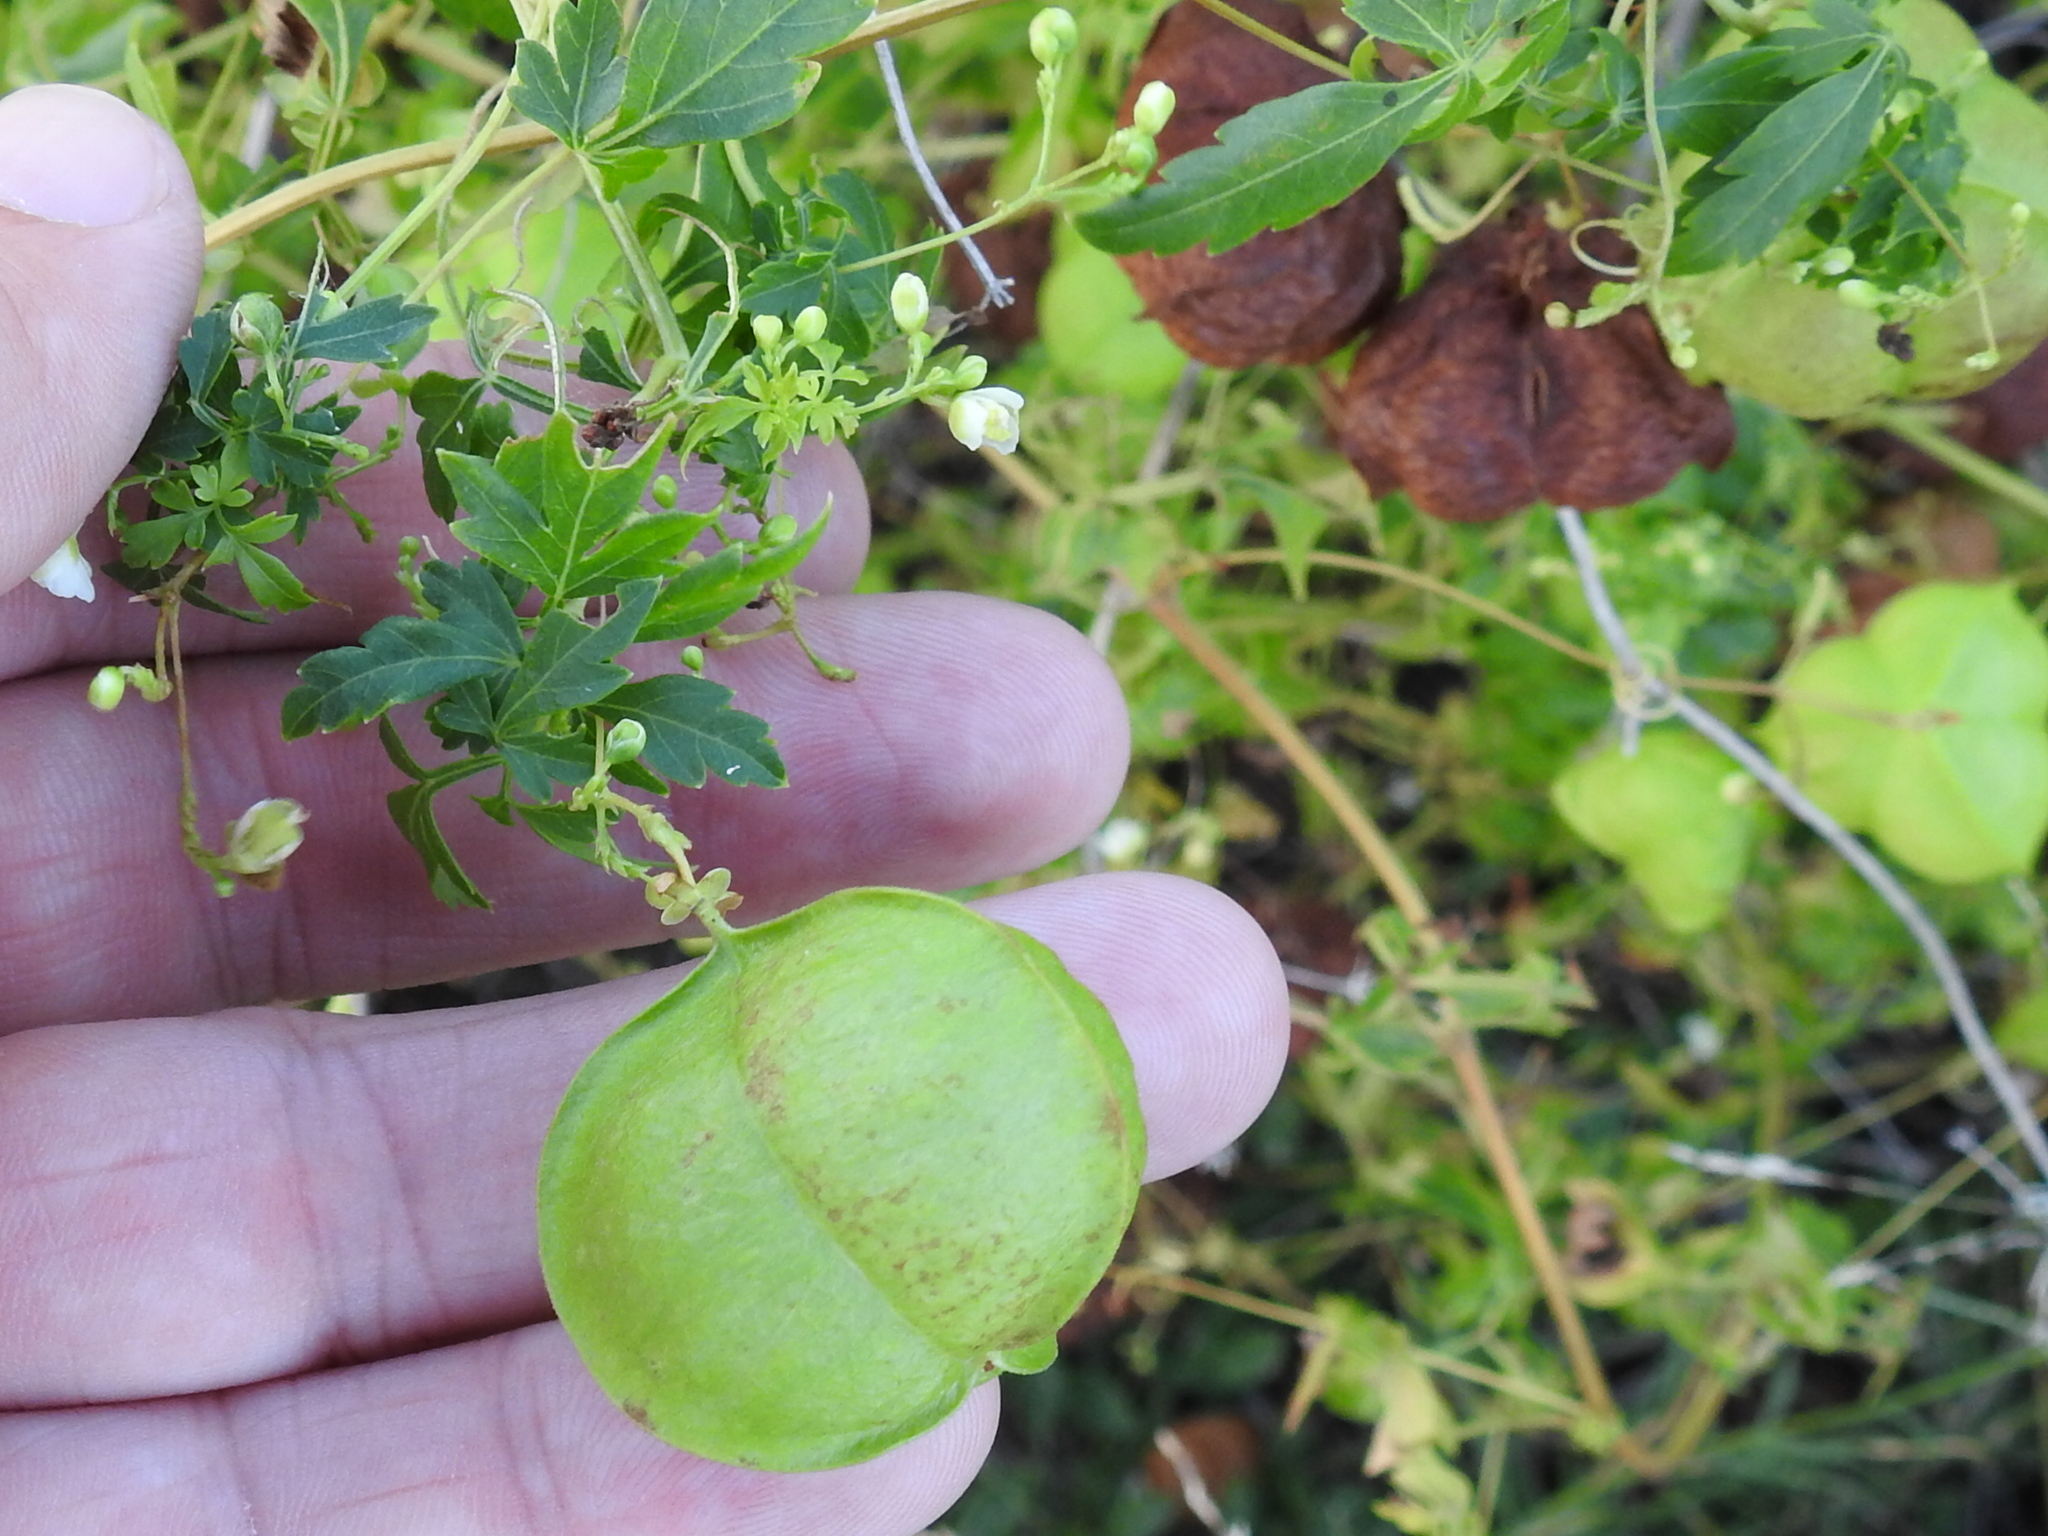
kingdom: Plantae
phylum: Tracheophyta
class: Magnoliopsida
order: Sapindales
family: Sapindaceae
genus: Cardiospermum
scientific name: Cardiospermum halicacabum
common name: Balloon vine
